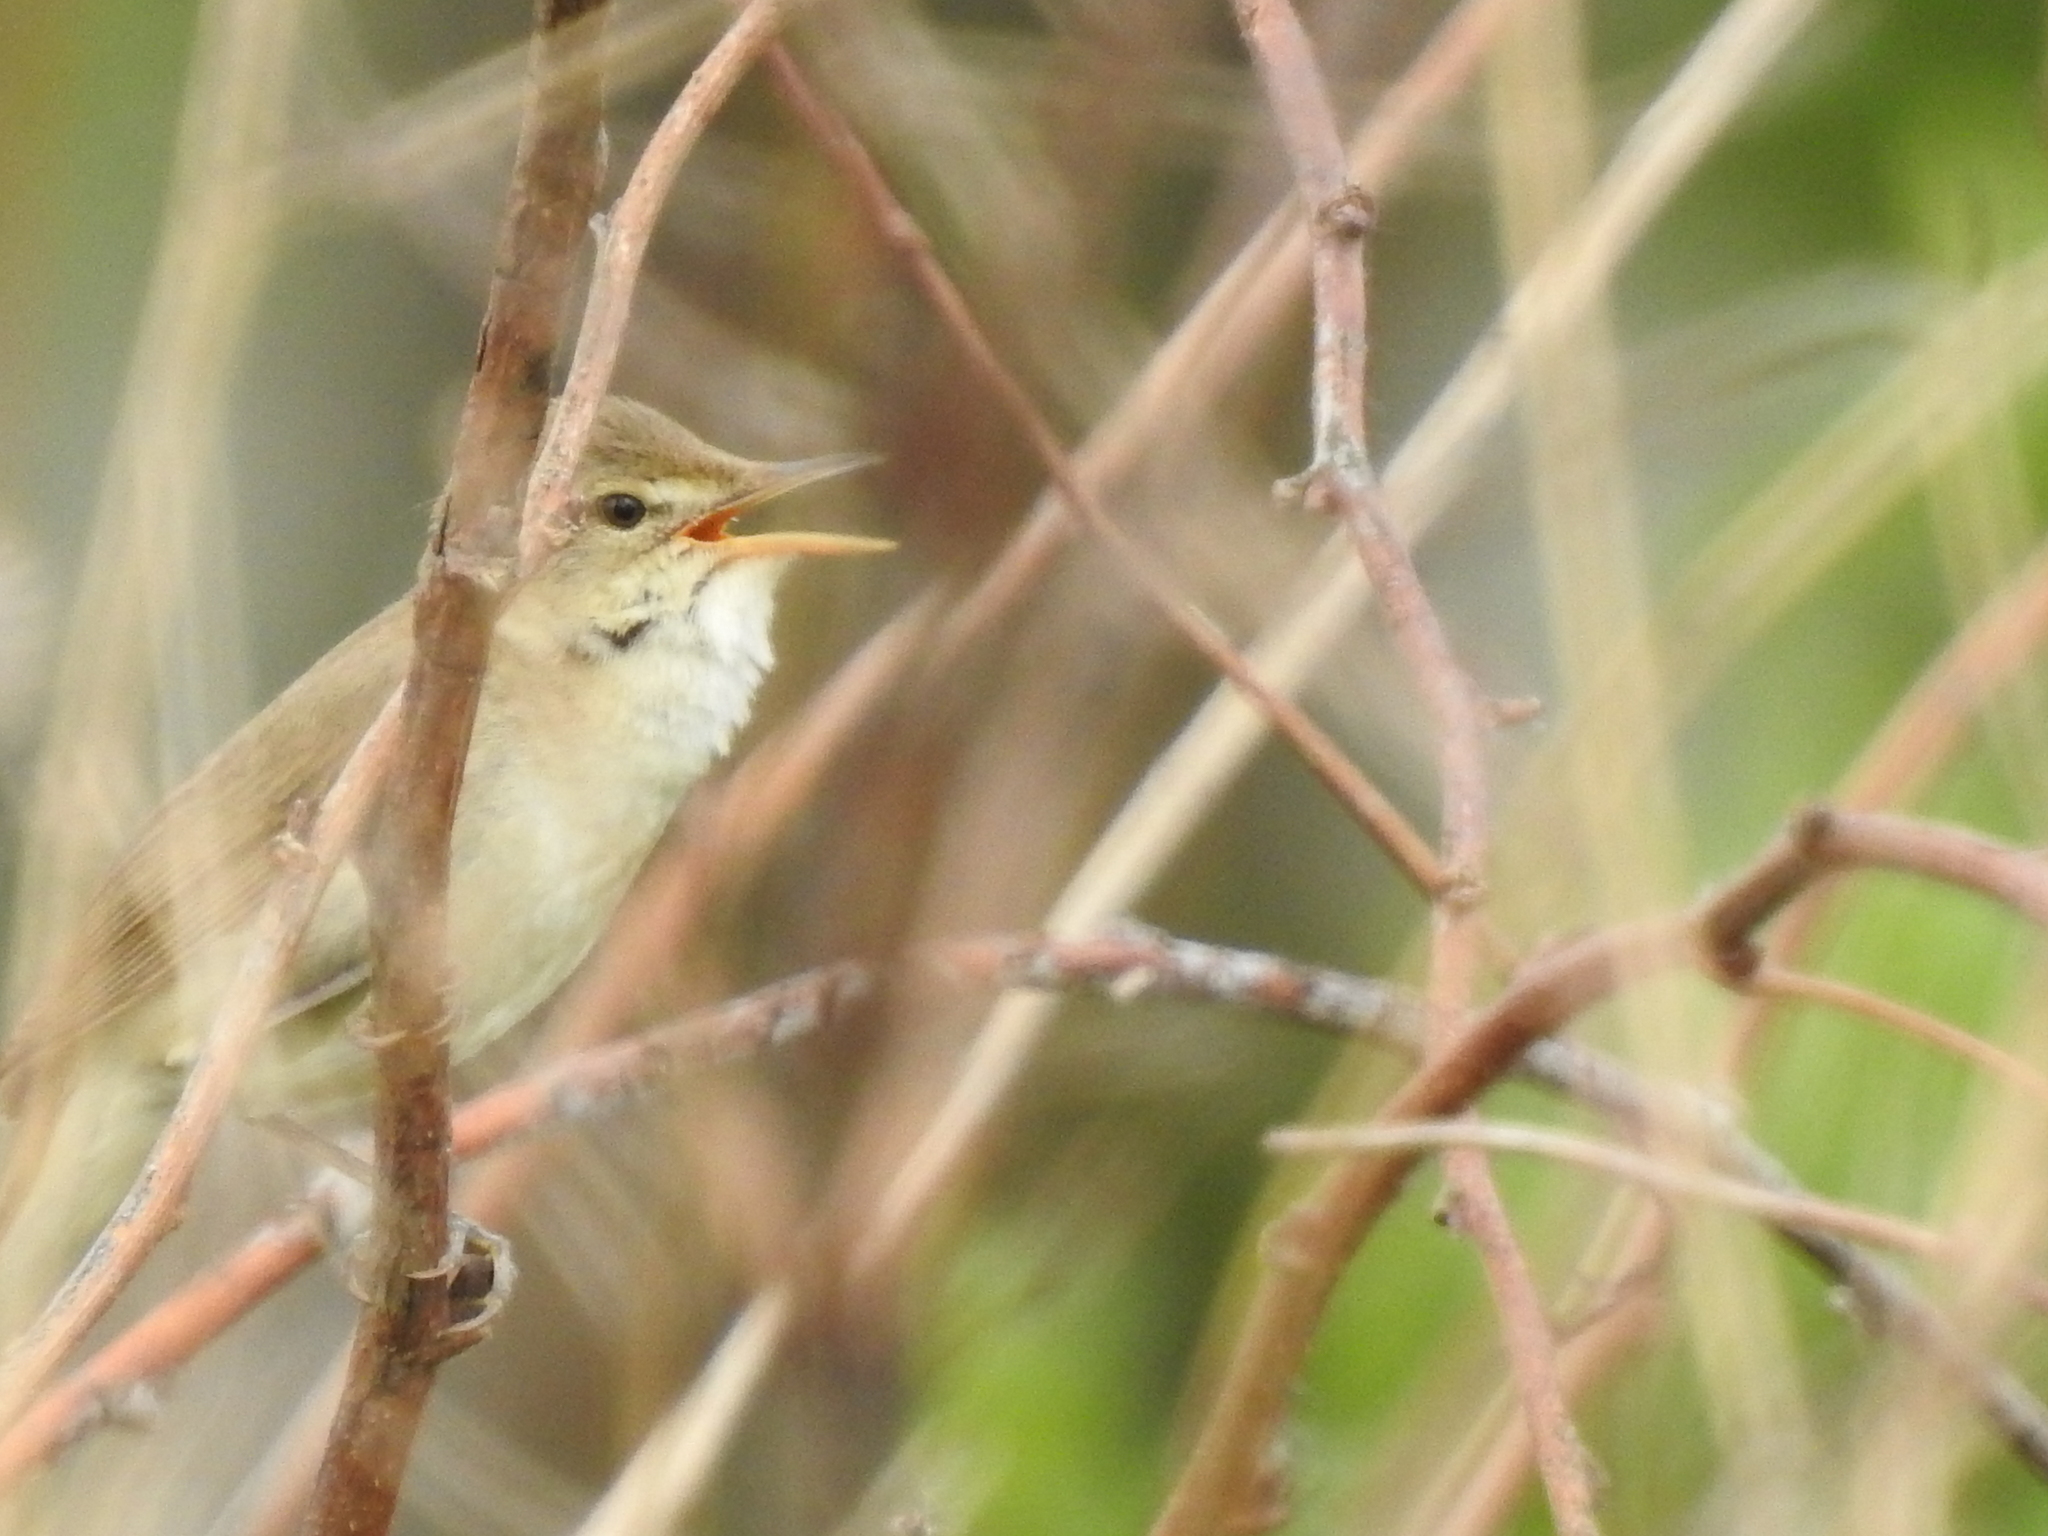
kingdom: Animalia
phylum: Chordata
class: Aves
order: Passeriformes
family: Acrocephalidae
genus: Acrocephalus
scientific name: Acrocephalus dumetorum
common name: Blyth's reed warbler
